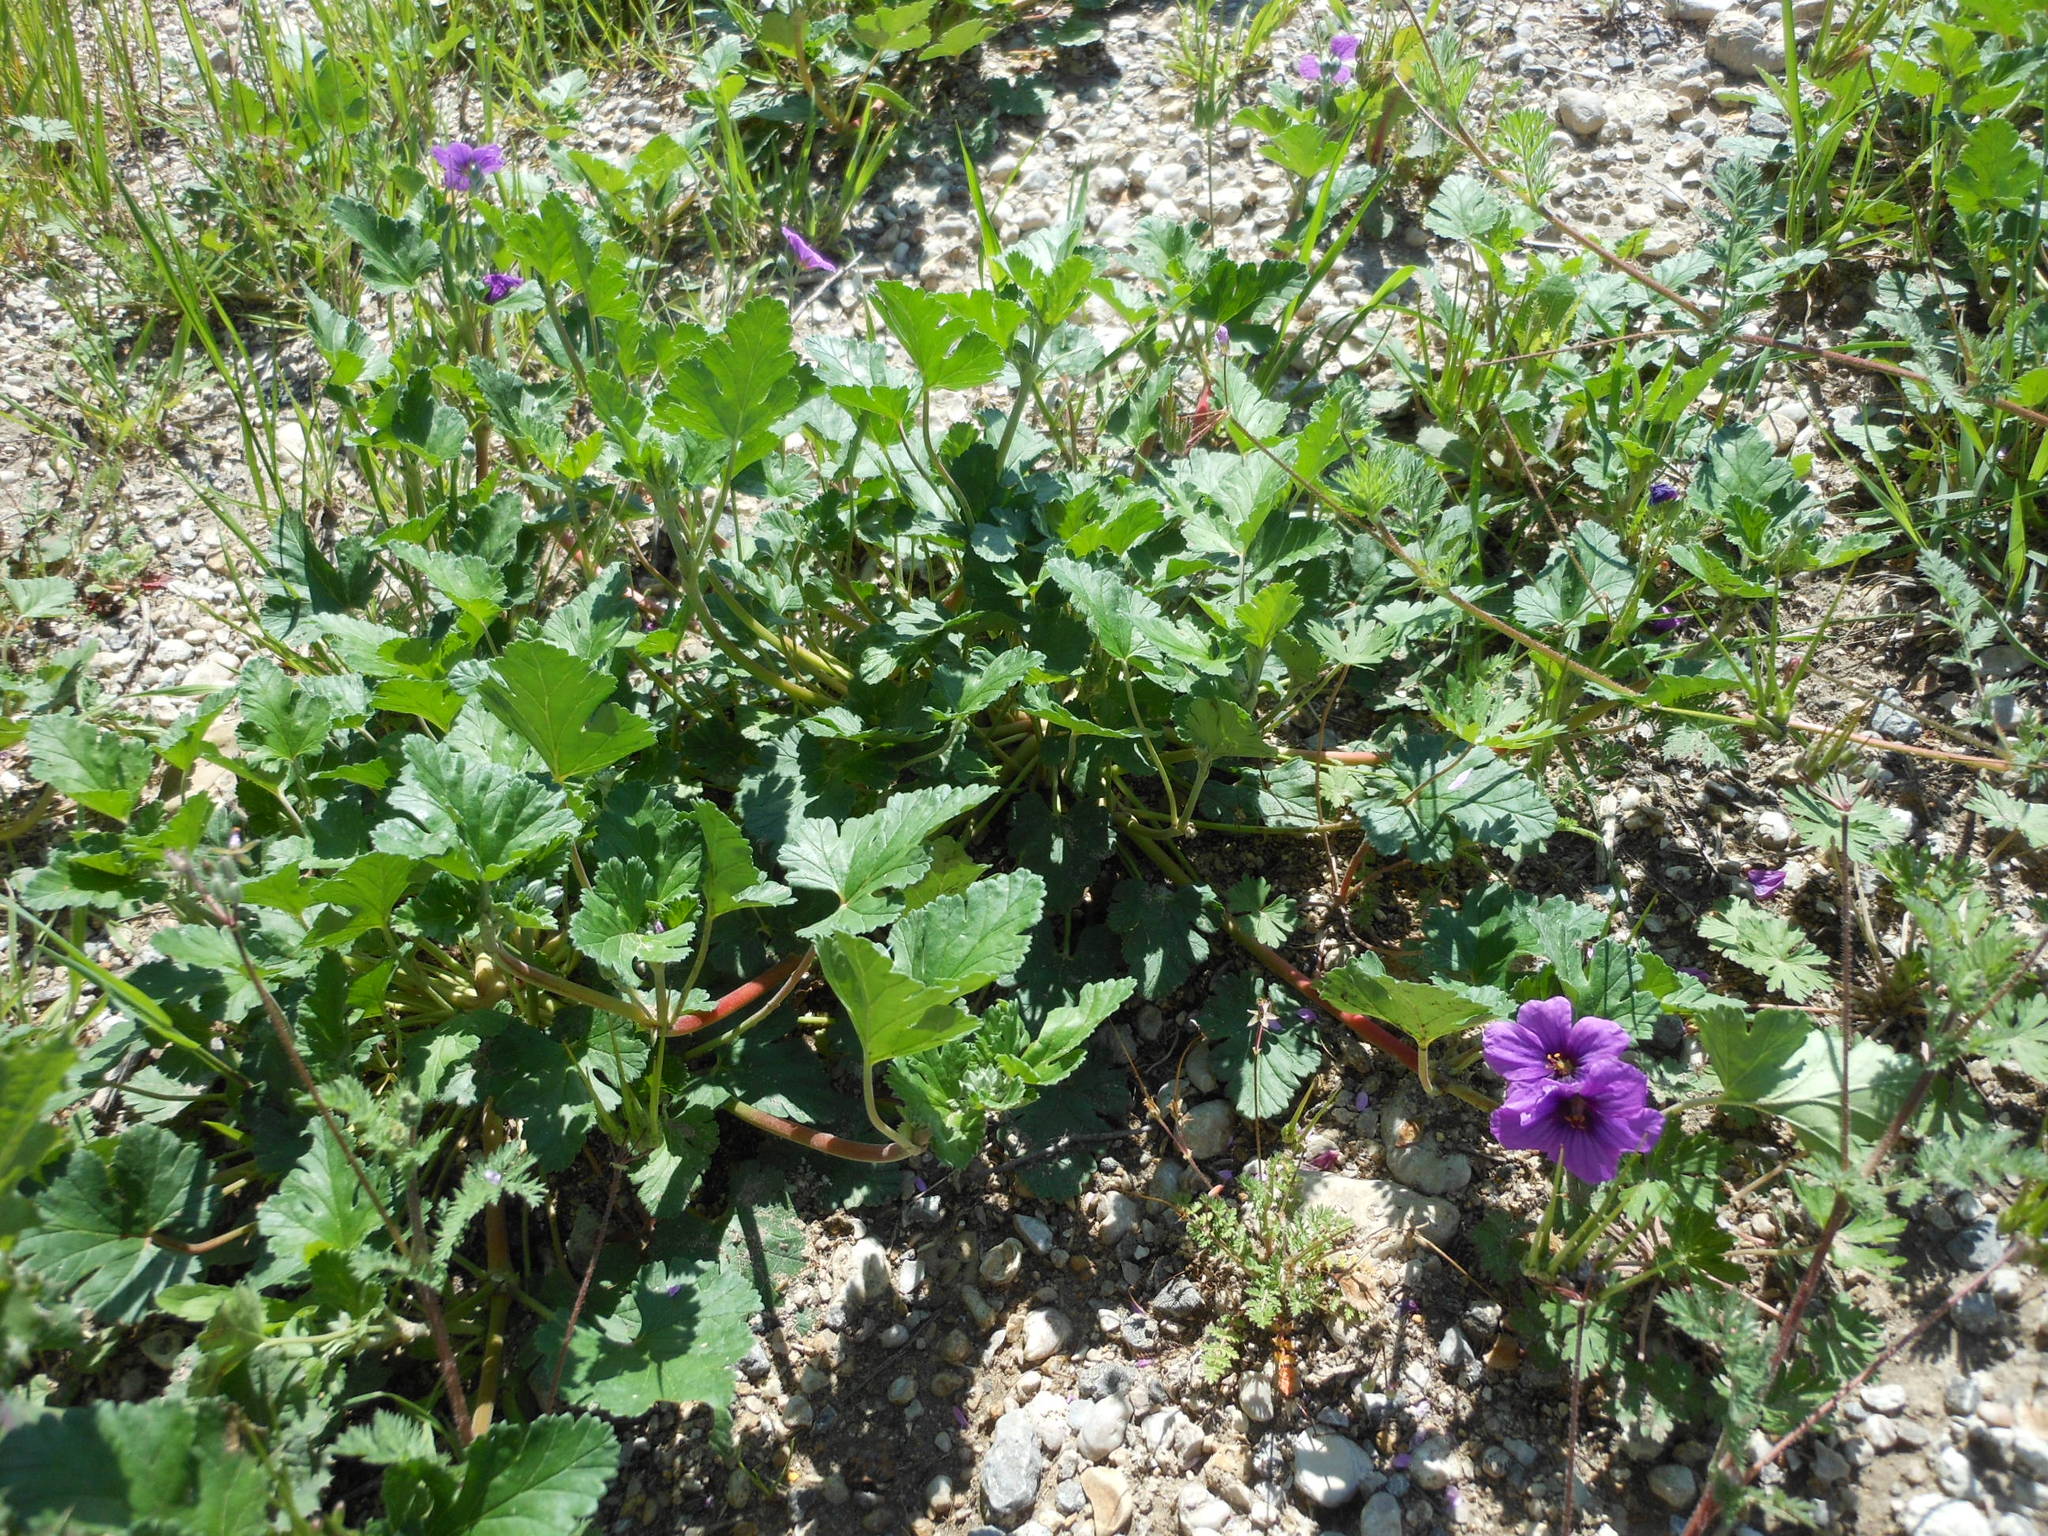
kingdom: Plantae
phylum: Tracheophyta
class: Magnoliopsida
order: Geraniales
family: Geraniaceae
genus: Erodium
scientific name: Erodium texanum
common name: Texas stork's-bill
